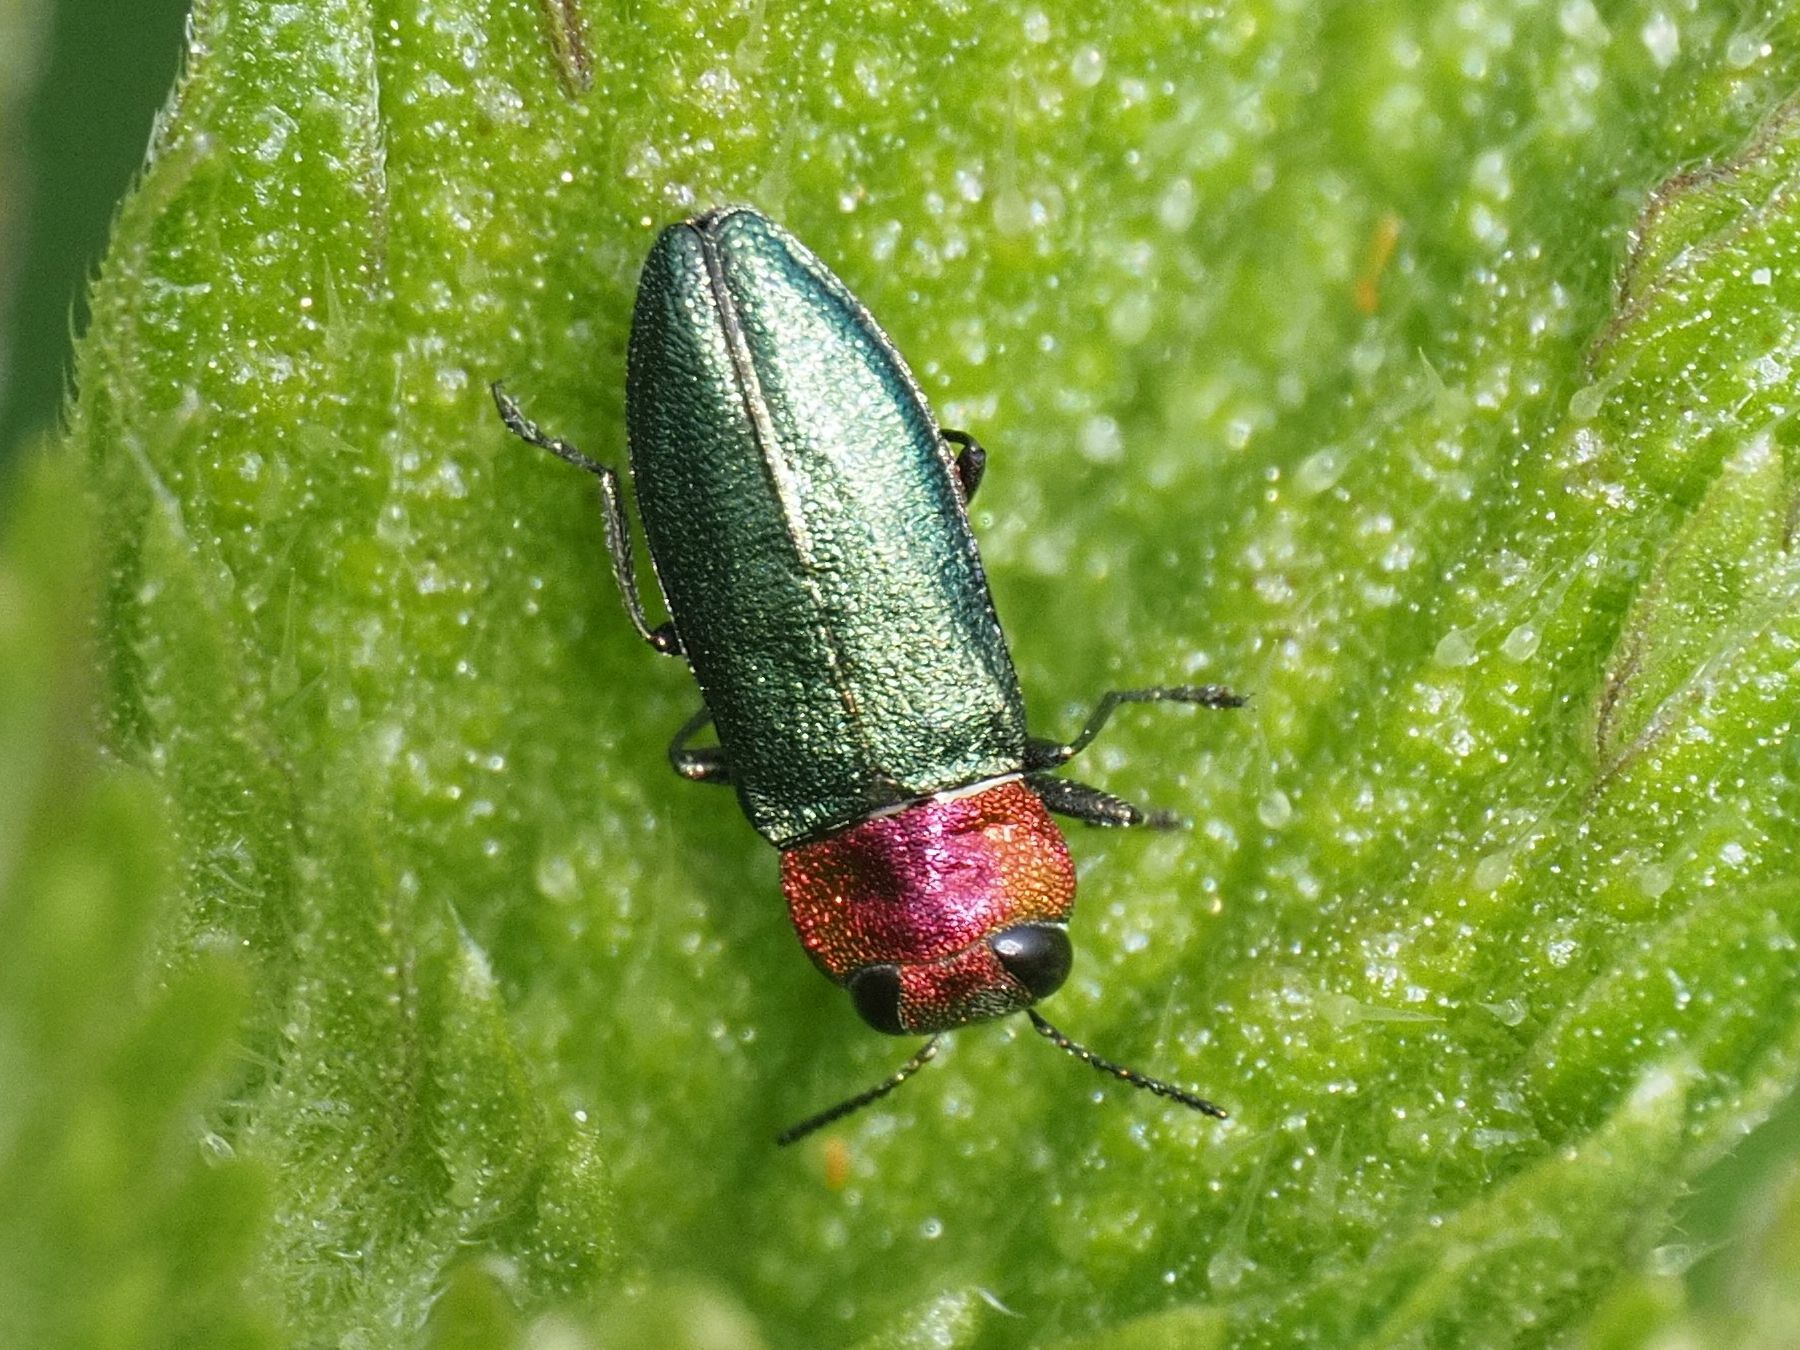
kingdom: Animalia
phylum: Arthropoda
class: Insecta
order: Coleoptera
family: Buprestidae
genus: Anthaxia
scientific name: Anthaxia nitidula
